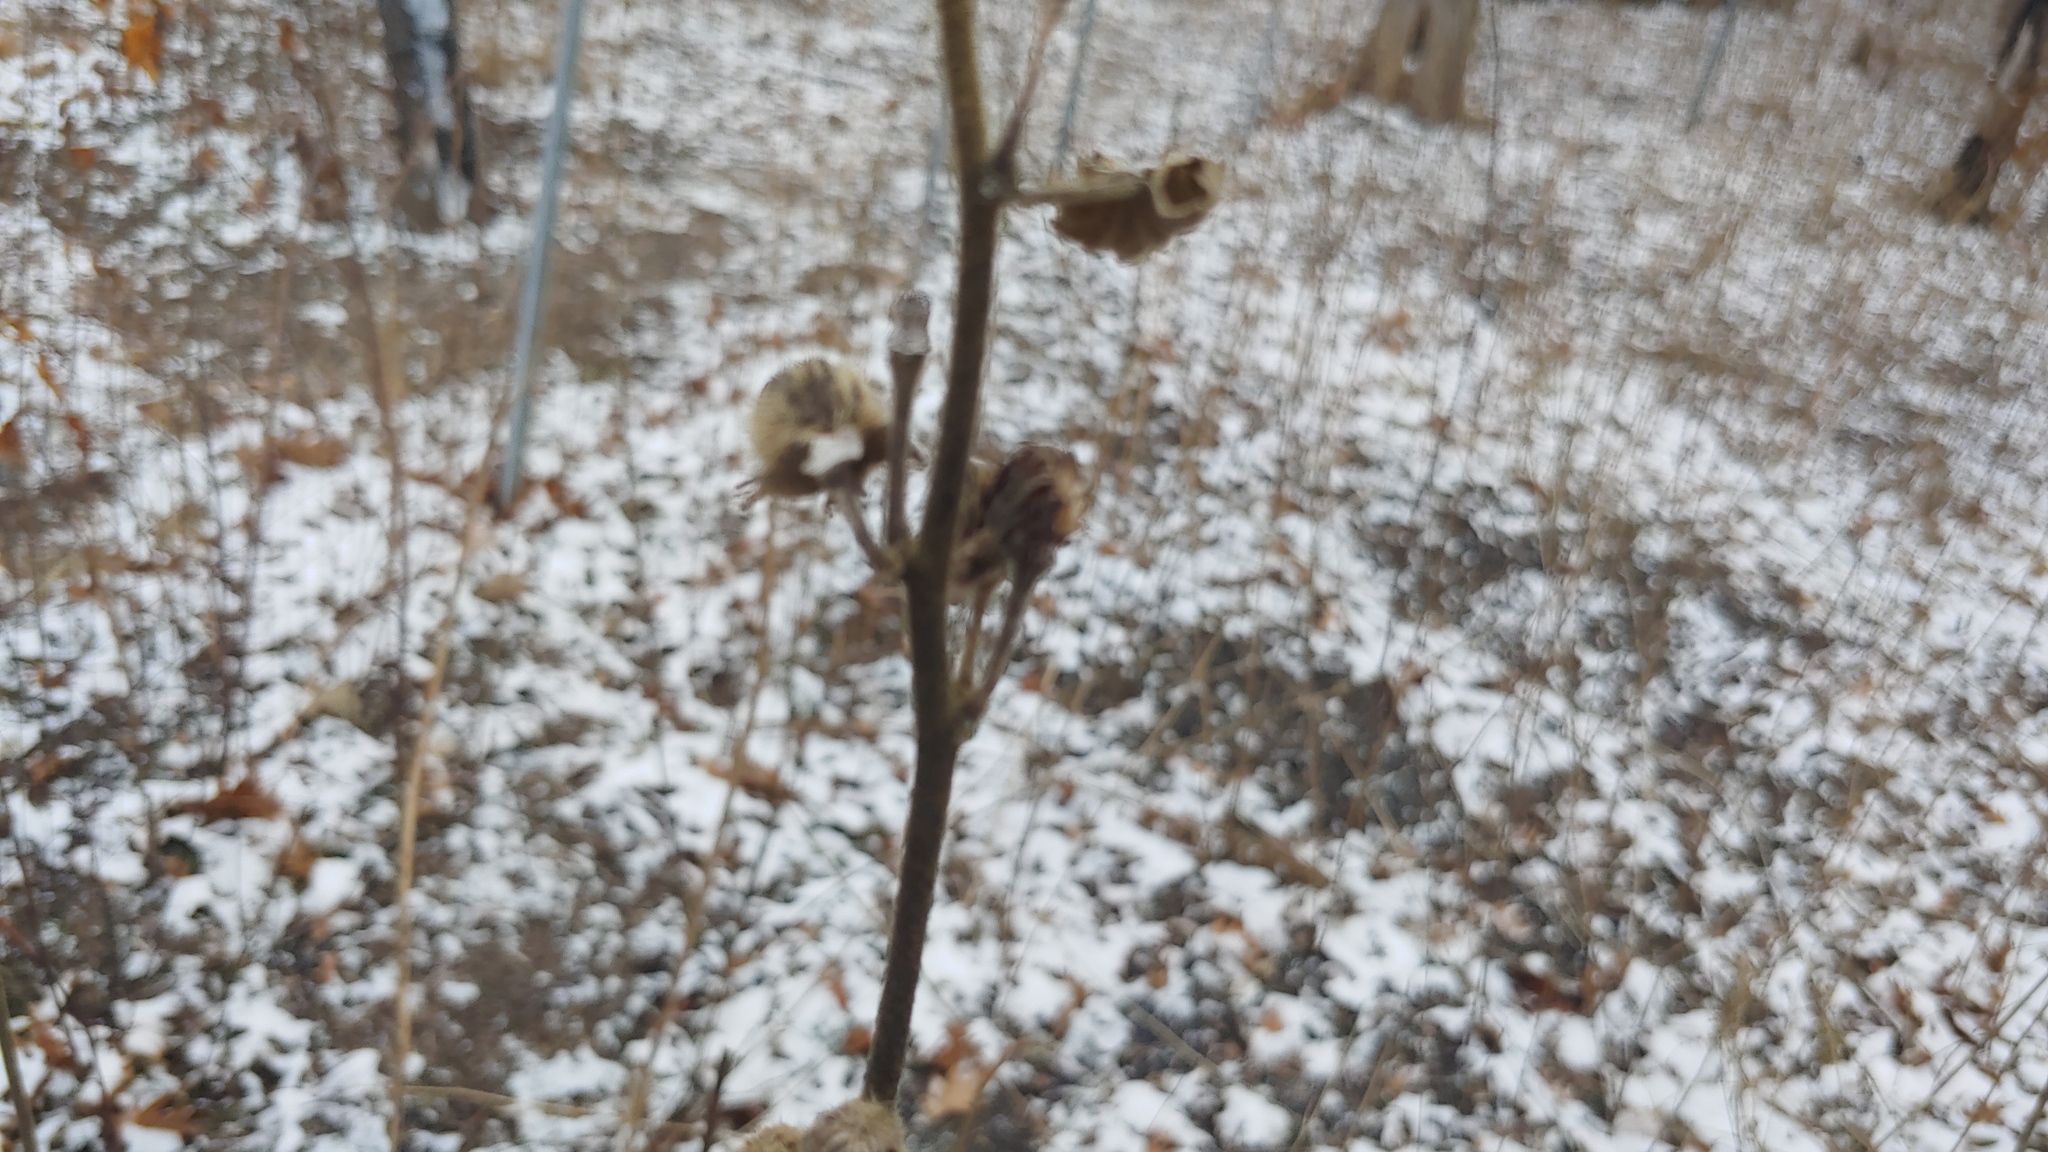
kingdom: Plantae
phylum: Tracheophyta
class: Magnoliopsida
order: Malvales
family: Malvaceae
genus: Iliamna
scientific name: Iliamna remota
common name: Kankakee globe-mallow
